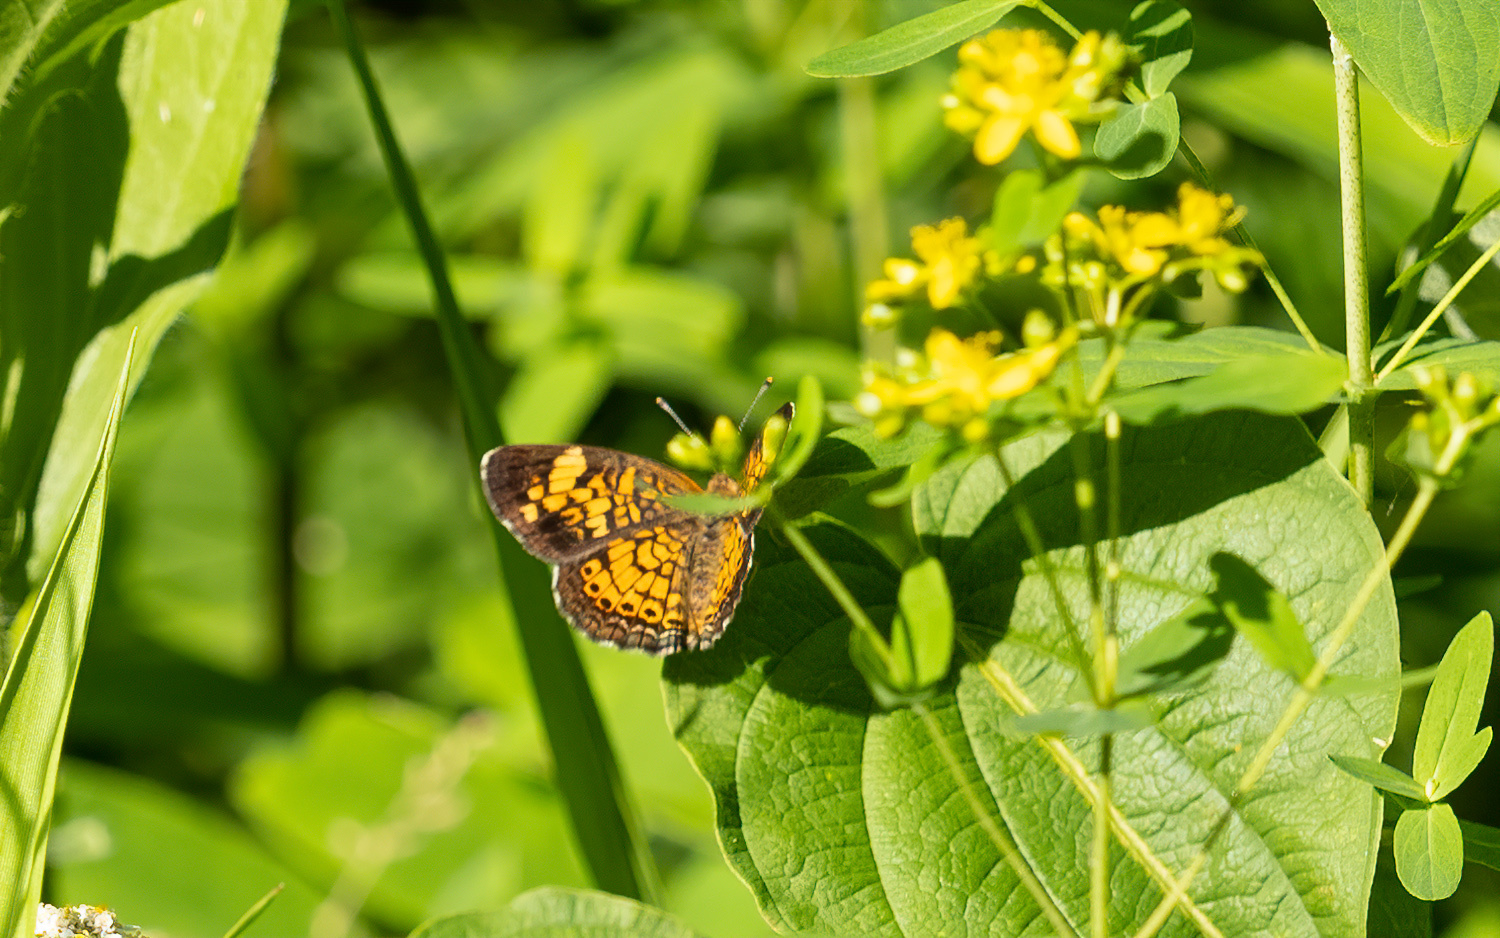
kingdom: Animalia
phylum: Arthropoda
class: Insecta
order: Lepidoptera
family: Nymphalidae
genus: Phyciodes
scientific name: Phyciodes tharos
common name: Pearl crescent
